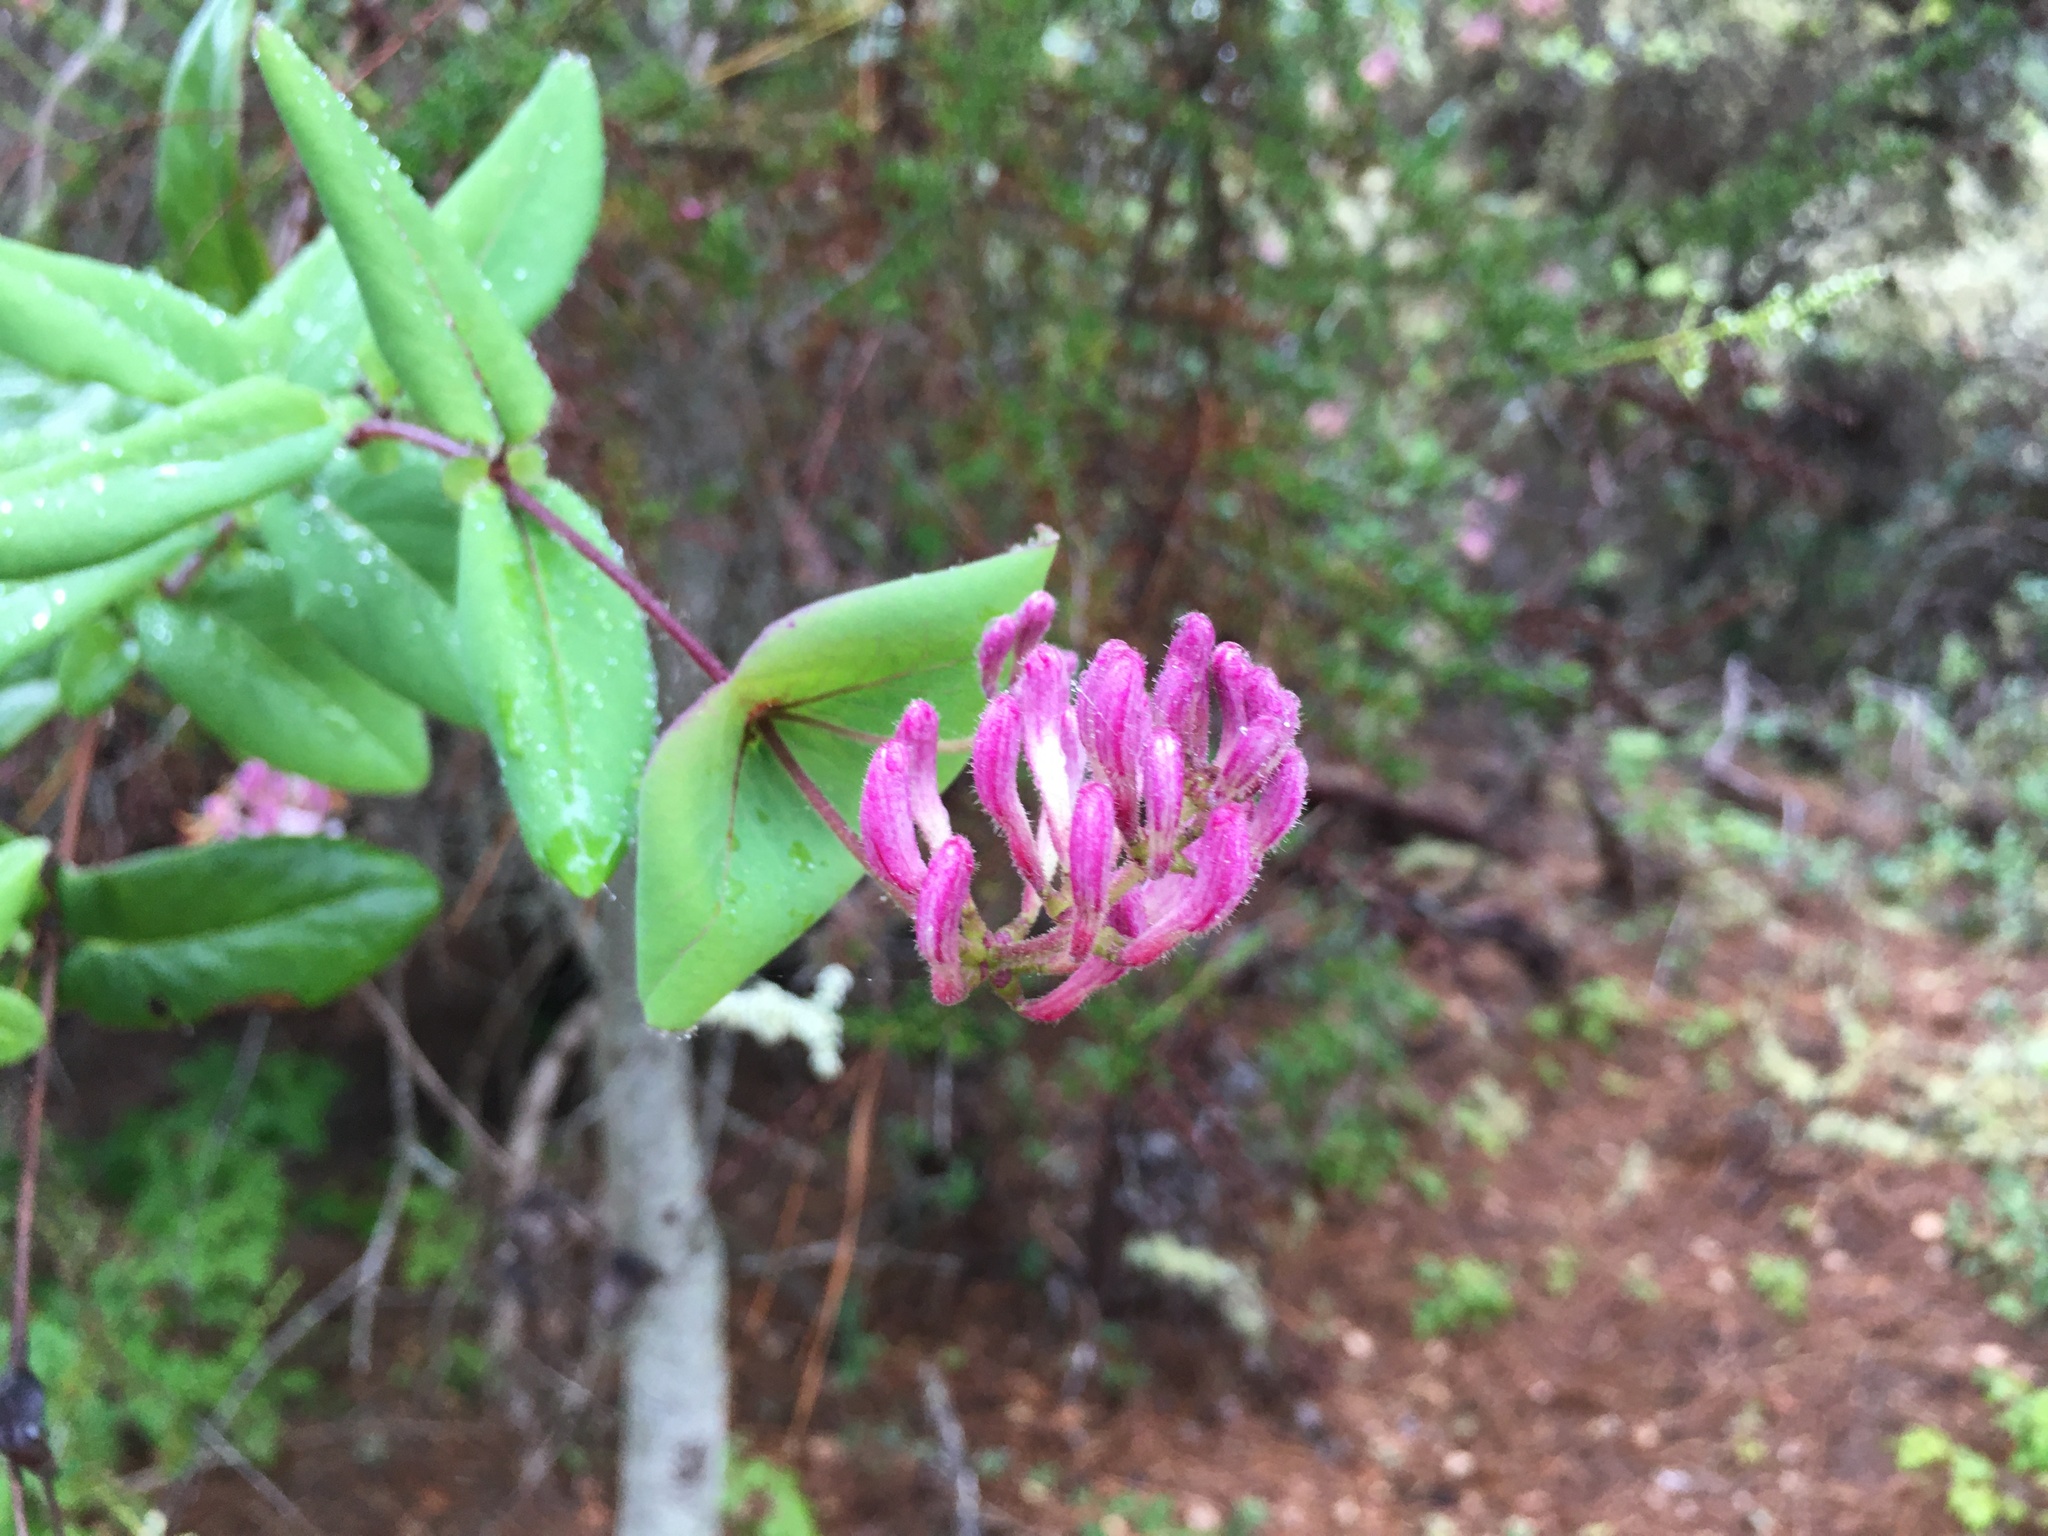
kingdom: Plantae
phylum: Tracheophyta
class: Magnoliopsida
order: Dipsacales
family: Caprifoliaceae
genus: Lonicera
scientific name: Lonicera hispidula
